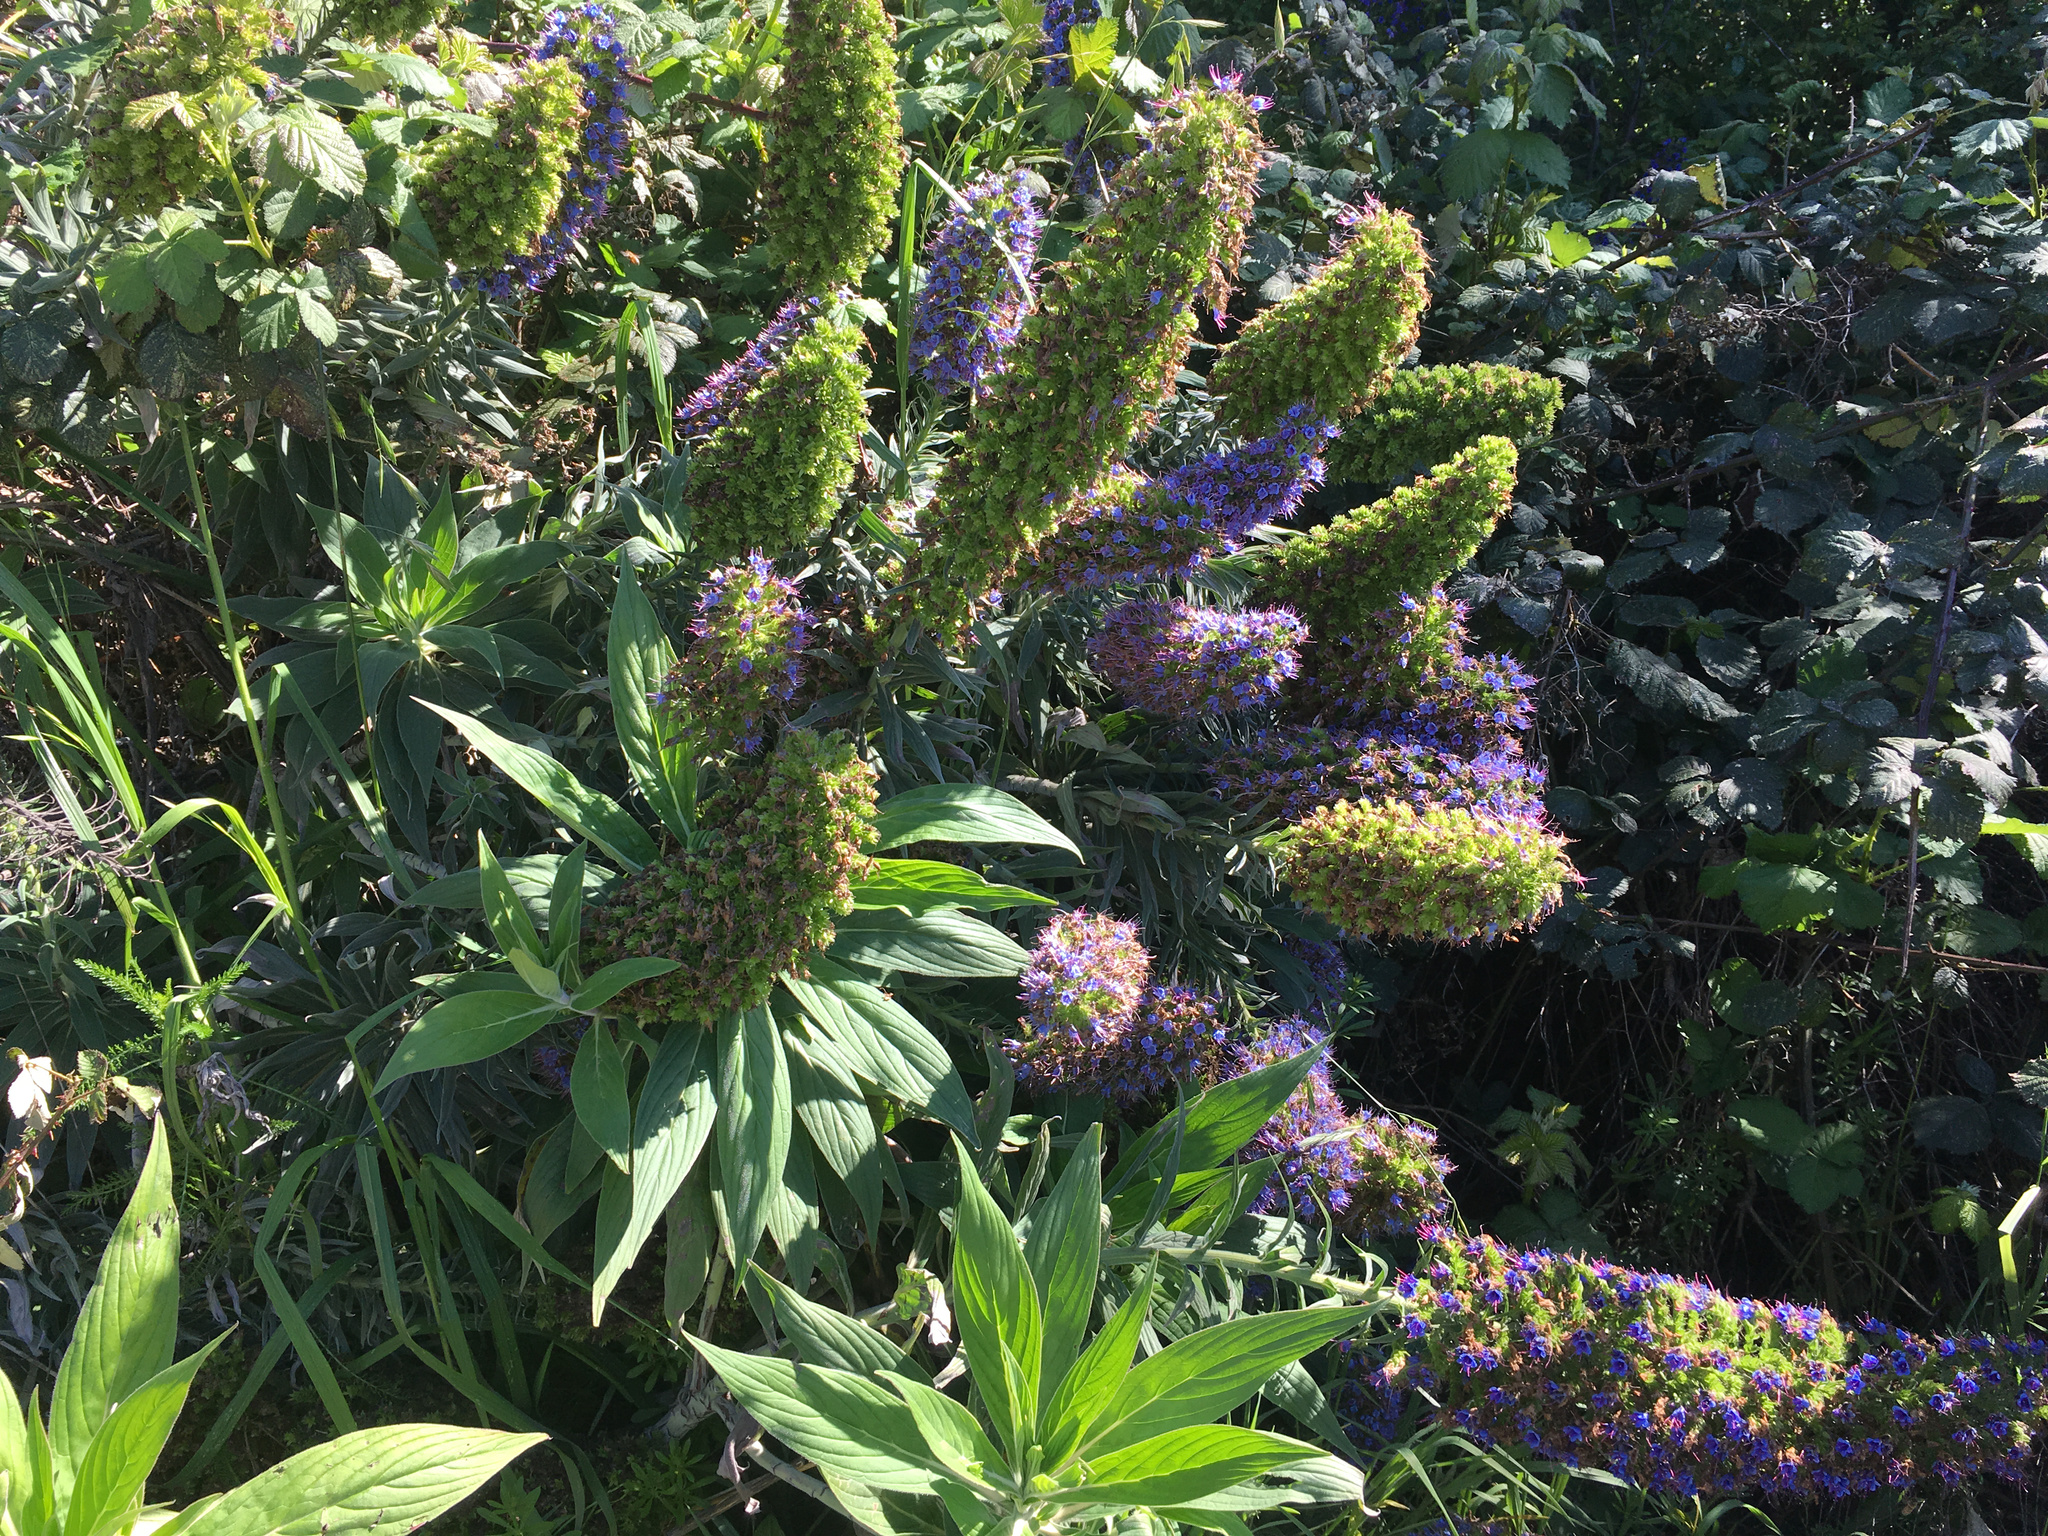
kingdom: Plantae
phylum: Tracheophyta
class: Magnoliopsida
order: Boraginales
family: Boraginaceae
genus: Echium
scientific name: Echium candicans
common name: Pride of madeira
